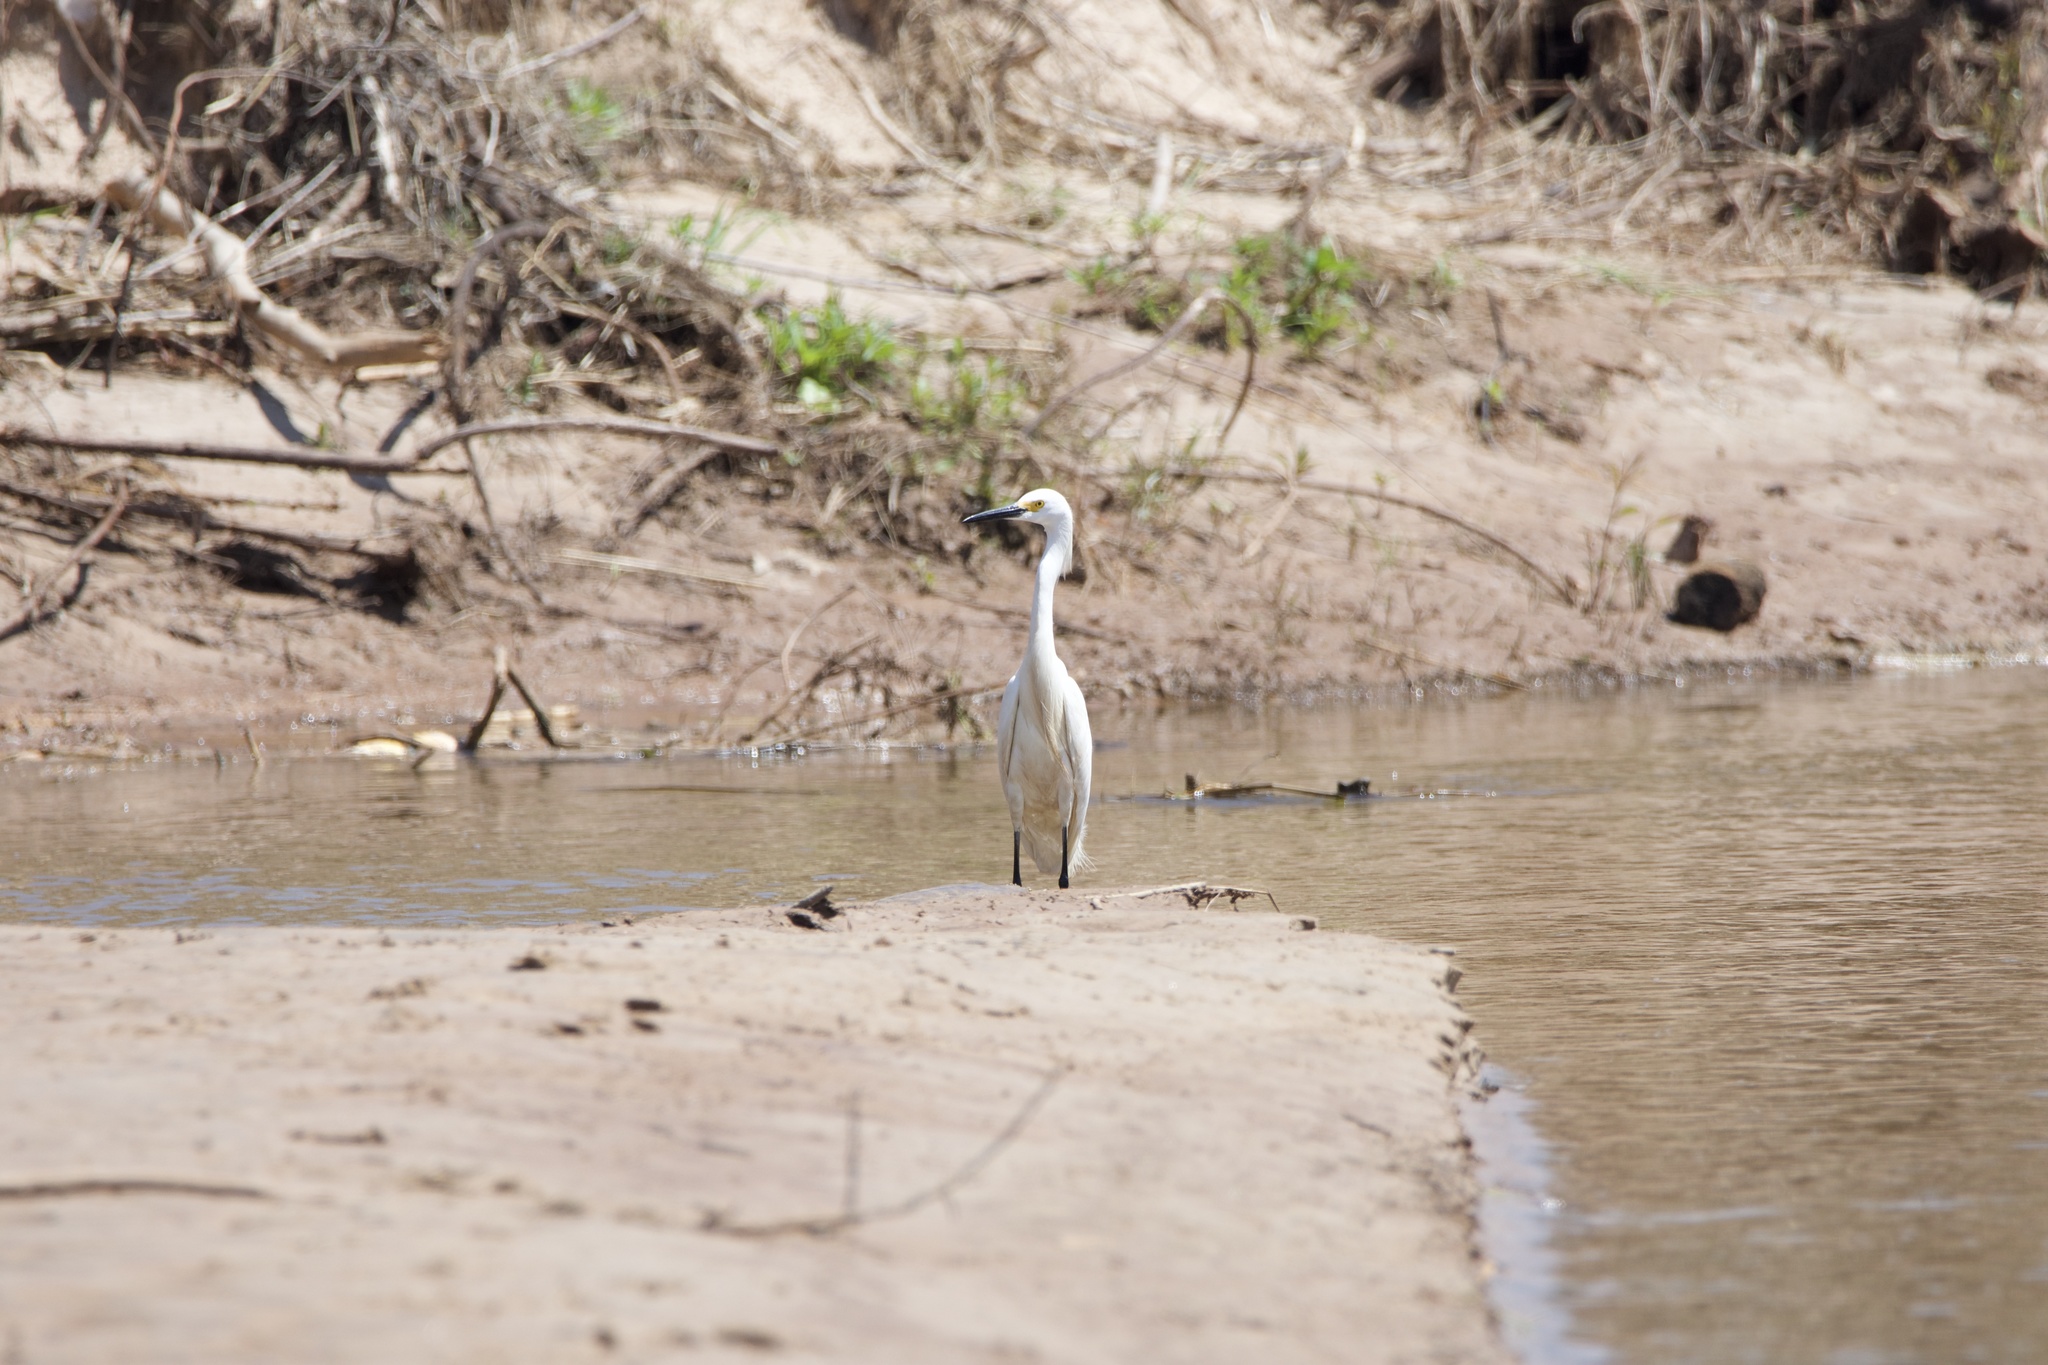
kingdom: Animalia
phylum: Chordata
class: Aves
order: Pelecaniformes
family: Ardeidae
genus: Egretta
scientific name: Egretta thula
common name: Snowy egret
